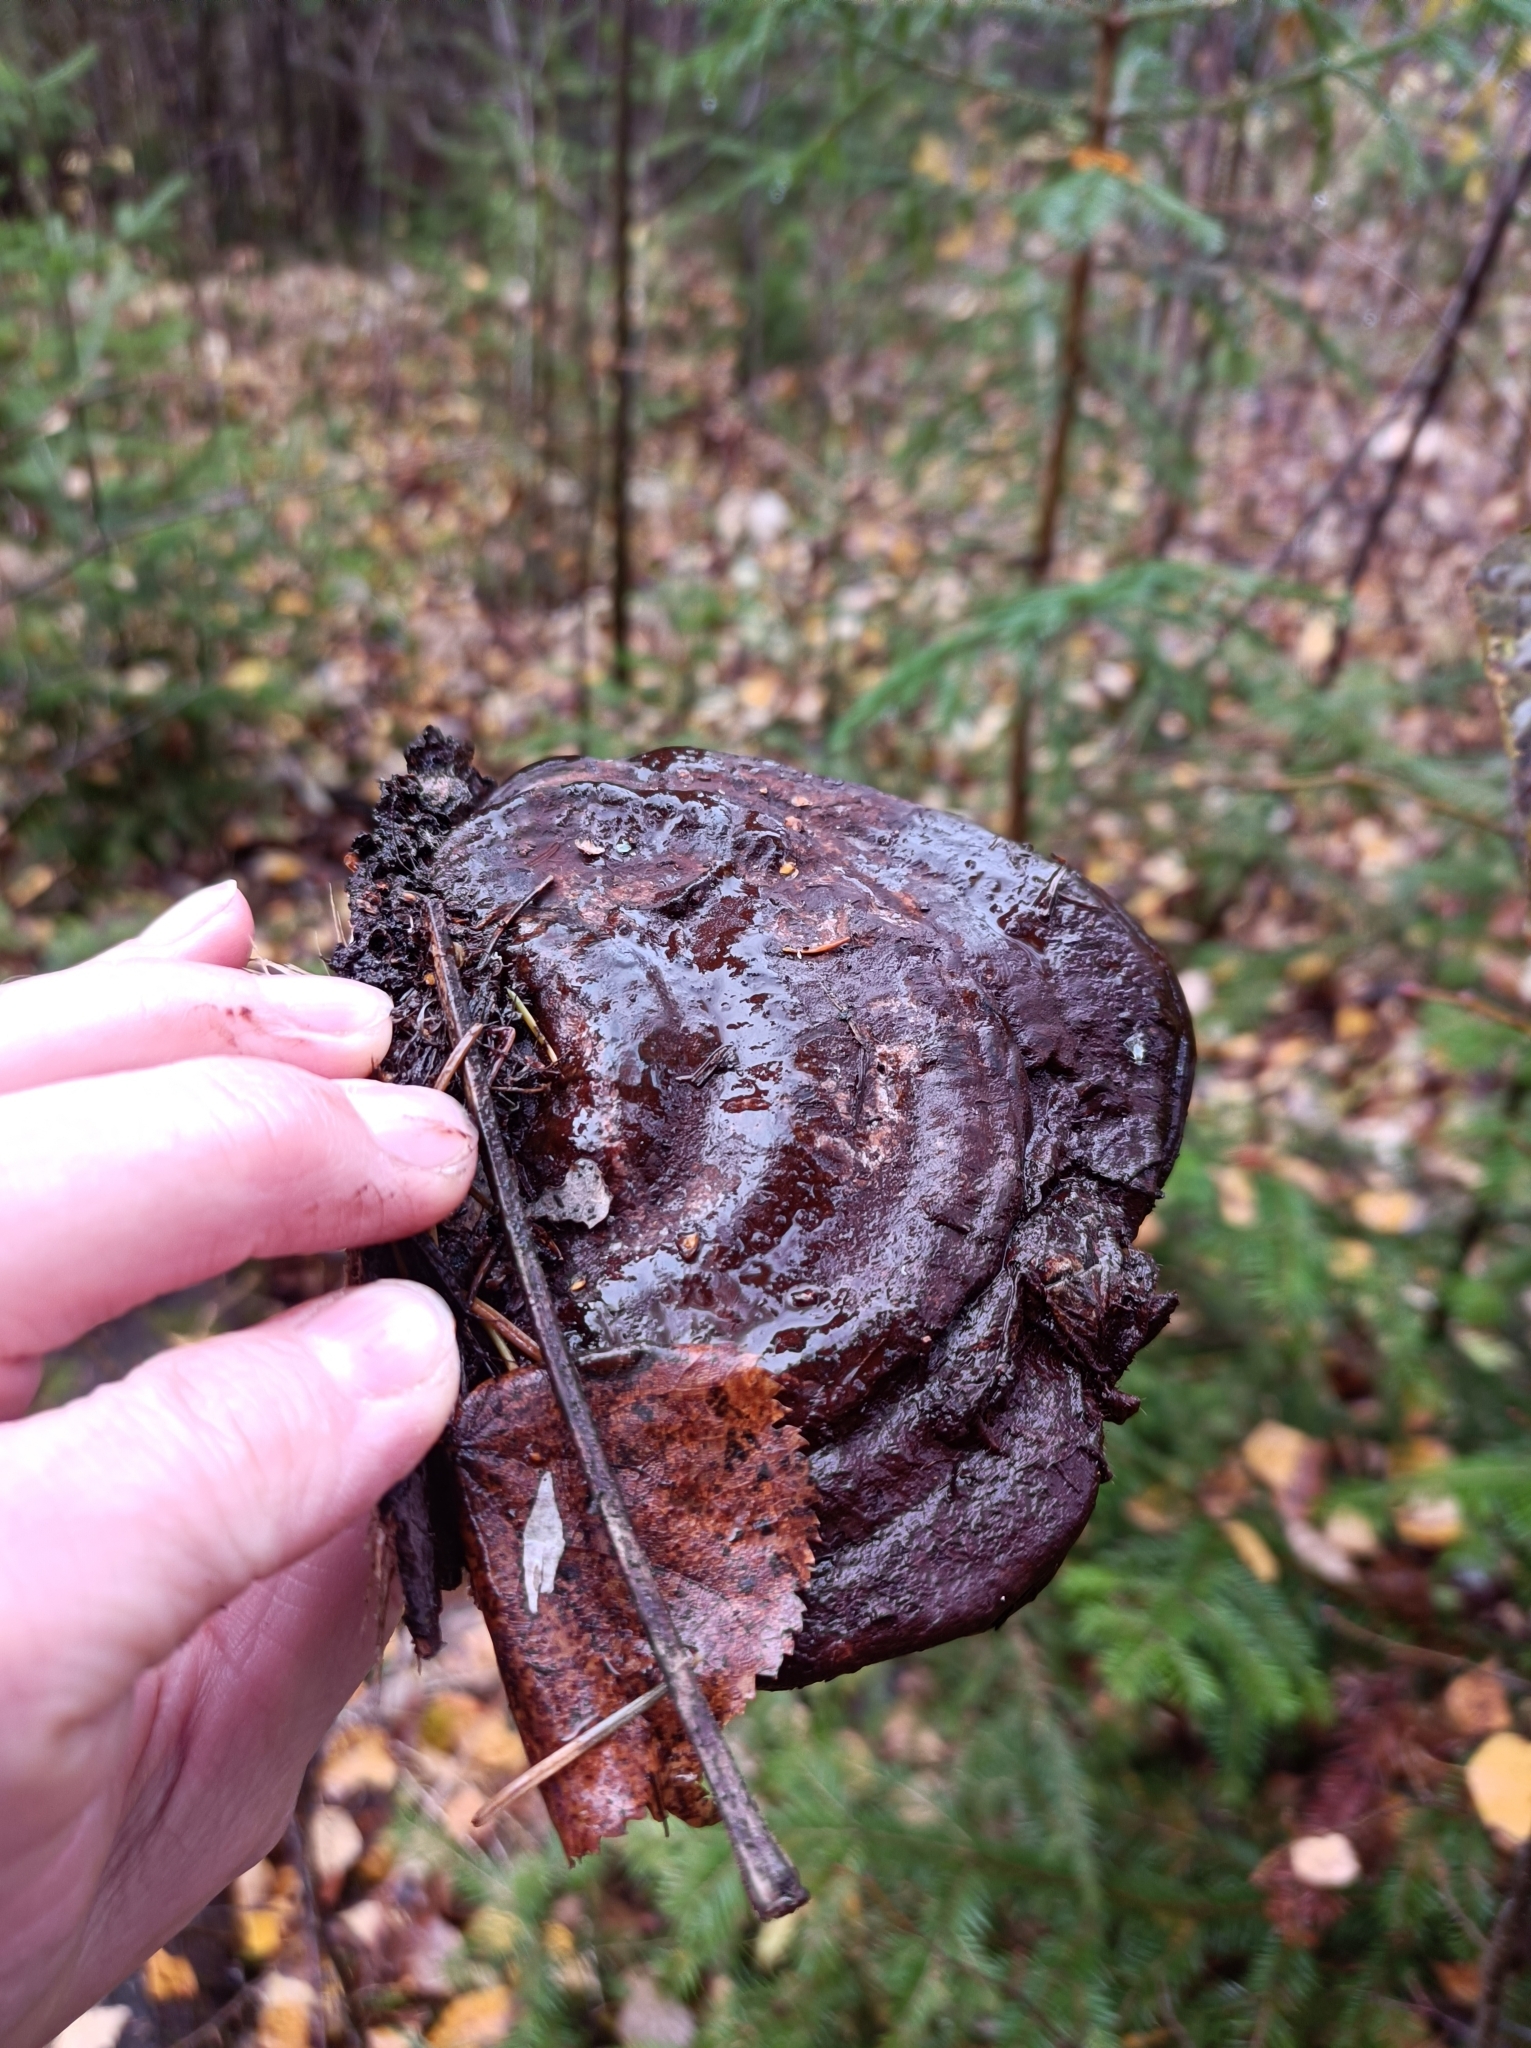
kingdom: Fungi
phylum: Basidiomycota
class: Agaricomycetes
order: Polyporales
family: Polyporaceae
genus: Ganoderma
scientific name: Ganoderma lucidum
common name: Lacquered bracket
